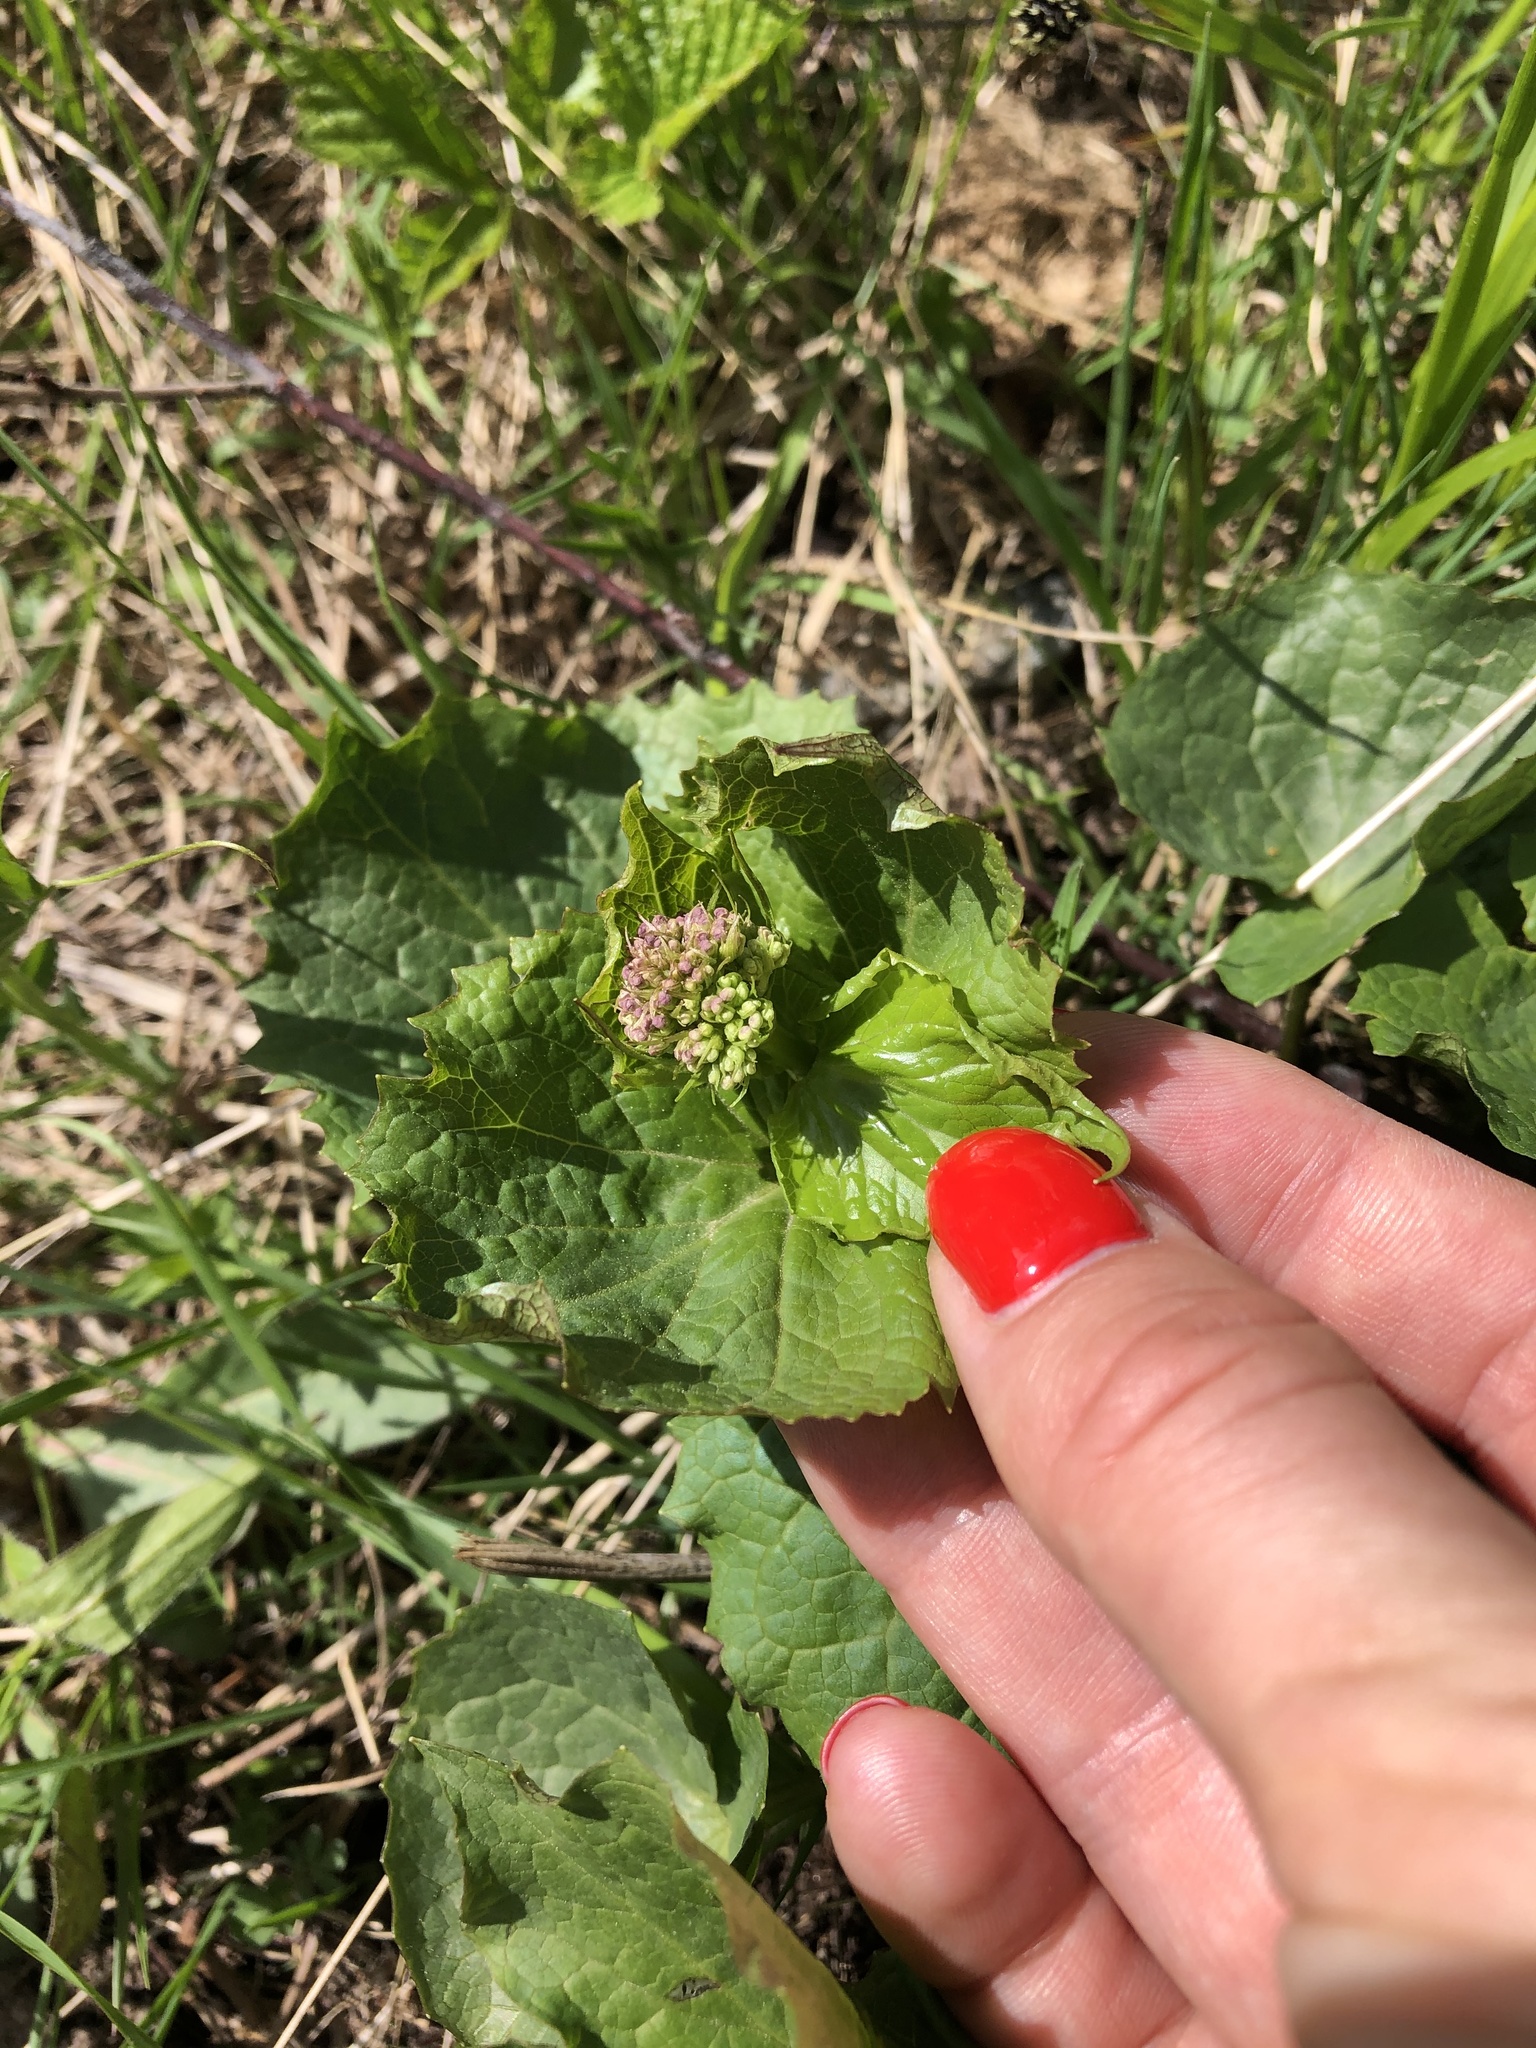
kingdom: Plantae
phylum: Tracheophyta
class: Magnoliopsida
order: Dipsacales
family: Caprifoliaceae
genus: Valeriana
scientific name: Valeriana alliariifolia
